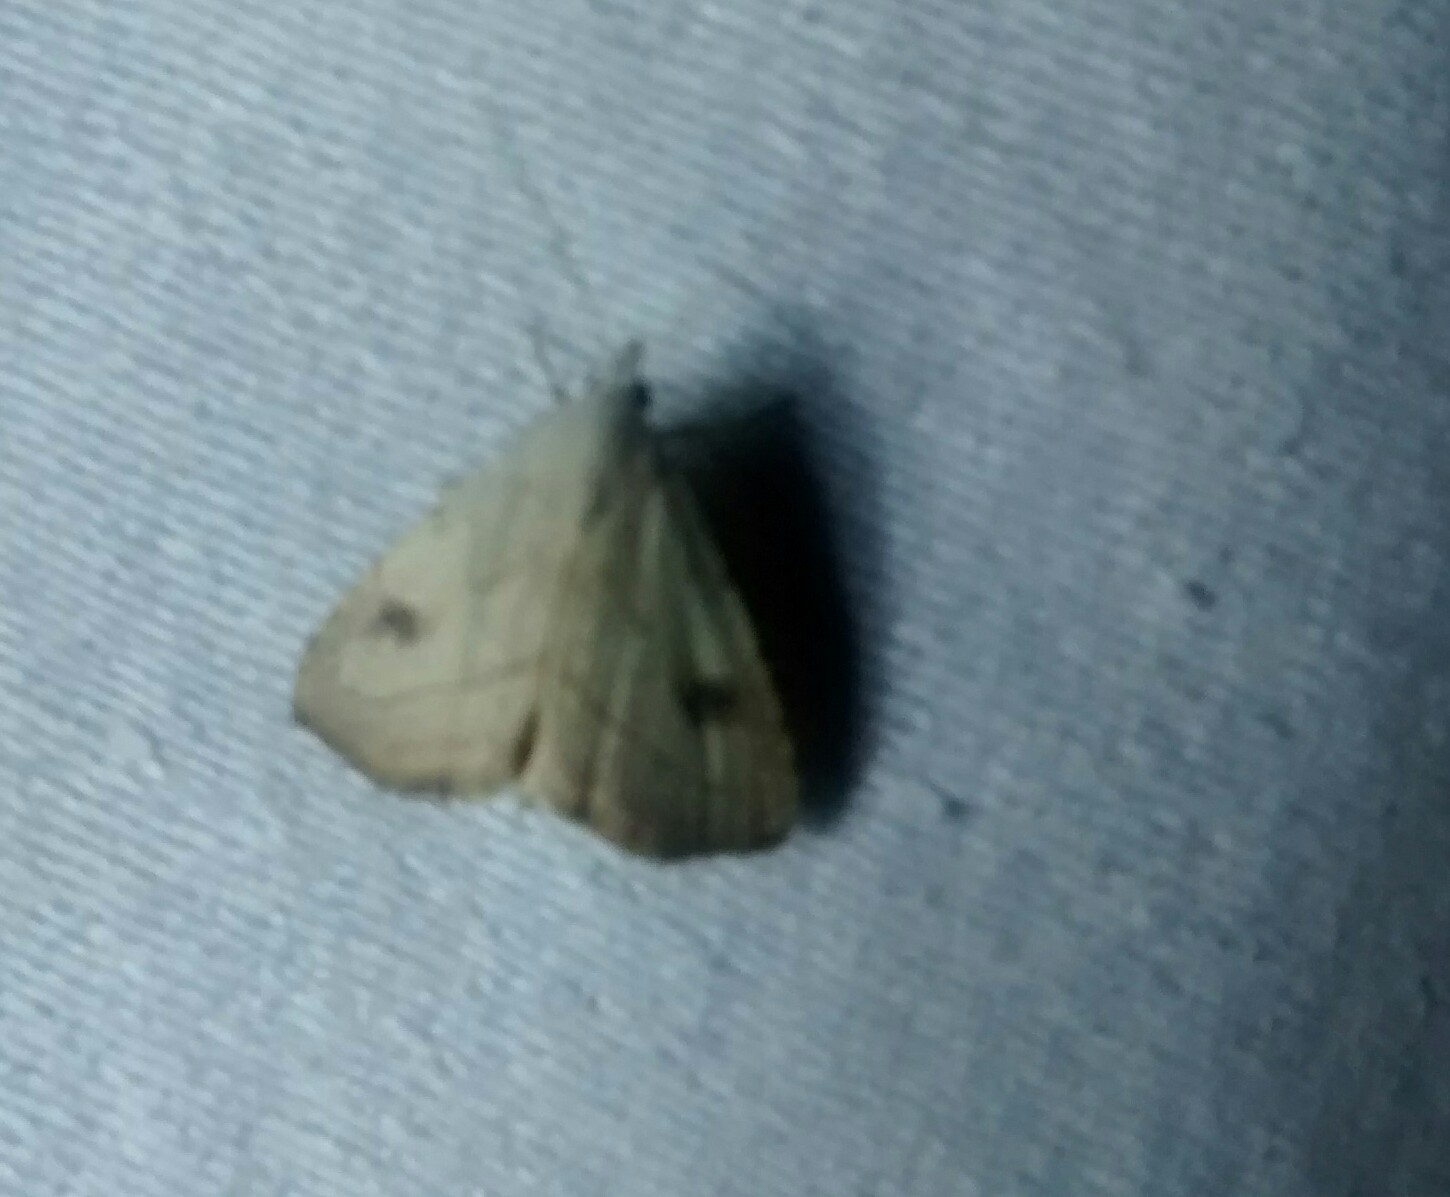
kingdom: Animalia
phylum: Arthropoda
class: Insecta
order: Lepidoptera
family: Erebidae
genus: Rivula
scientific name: Rivula propinqualis
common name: Spotted grass moth
